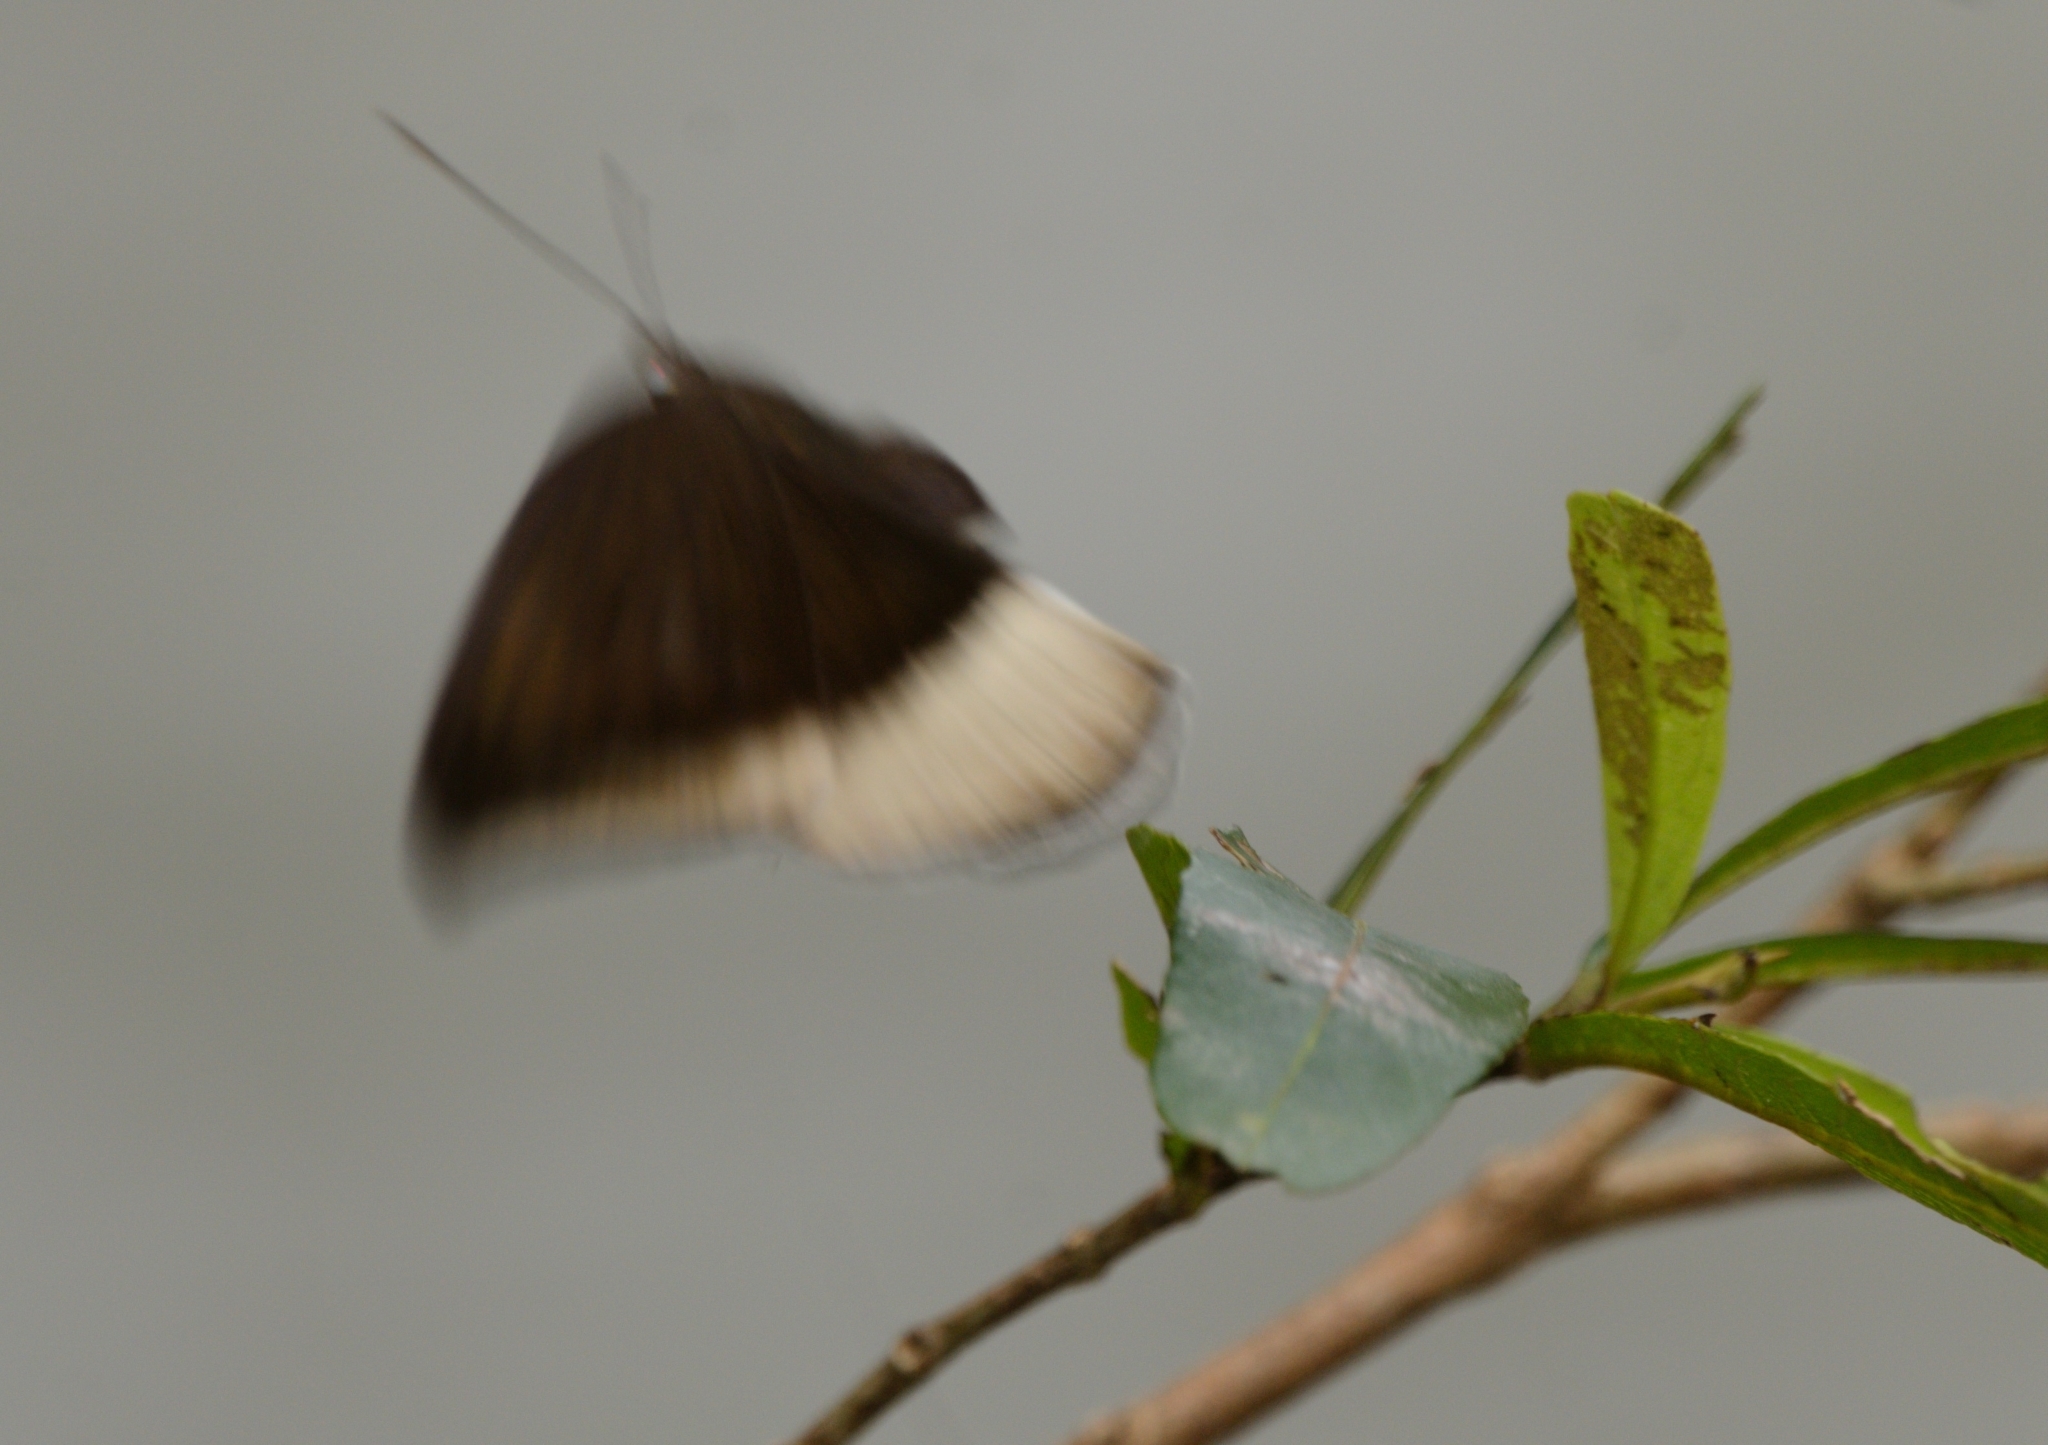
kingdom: Animalia
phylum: Arthropoda
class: Insecta
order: Lepidoptera
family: Nymphalidae
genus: Tanaecia
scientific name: Tanaecia lepidea
